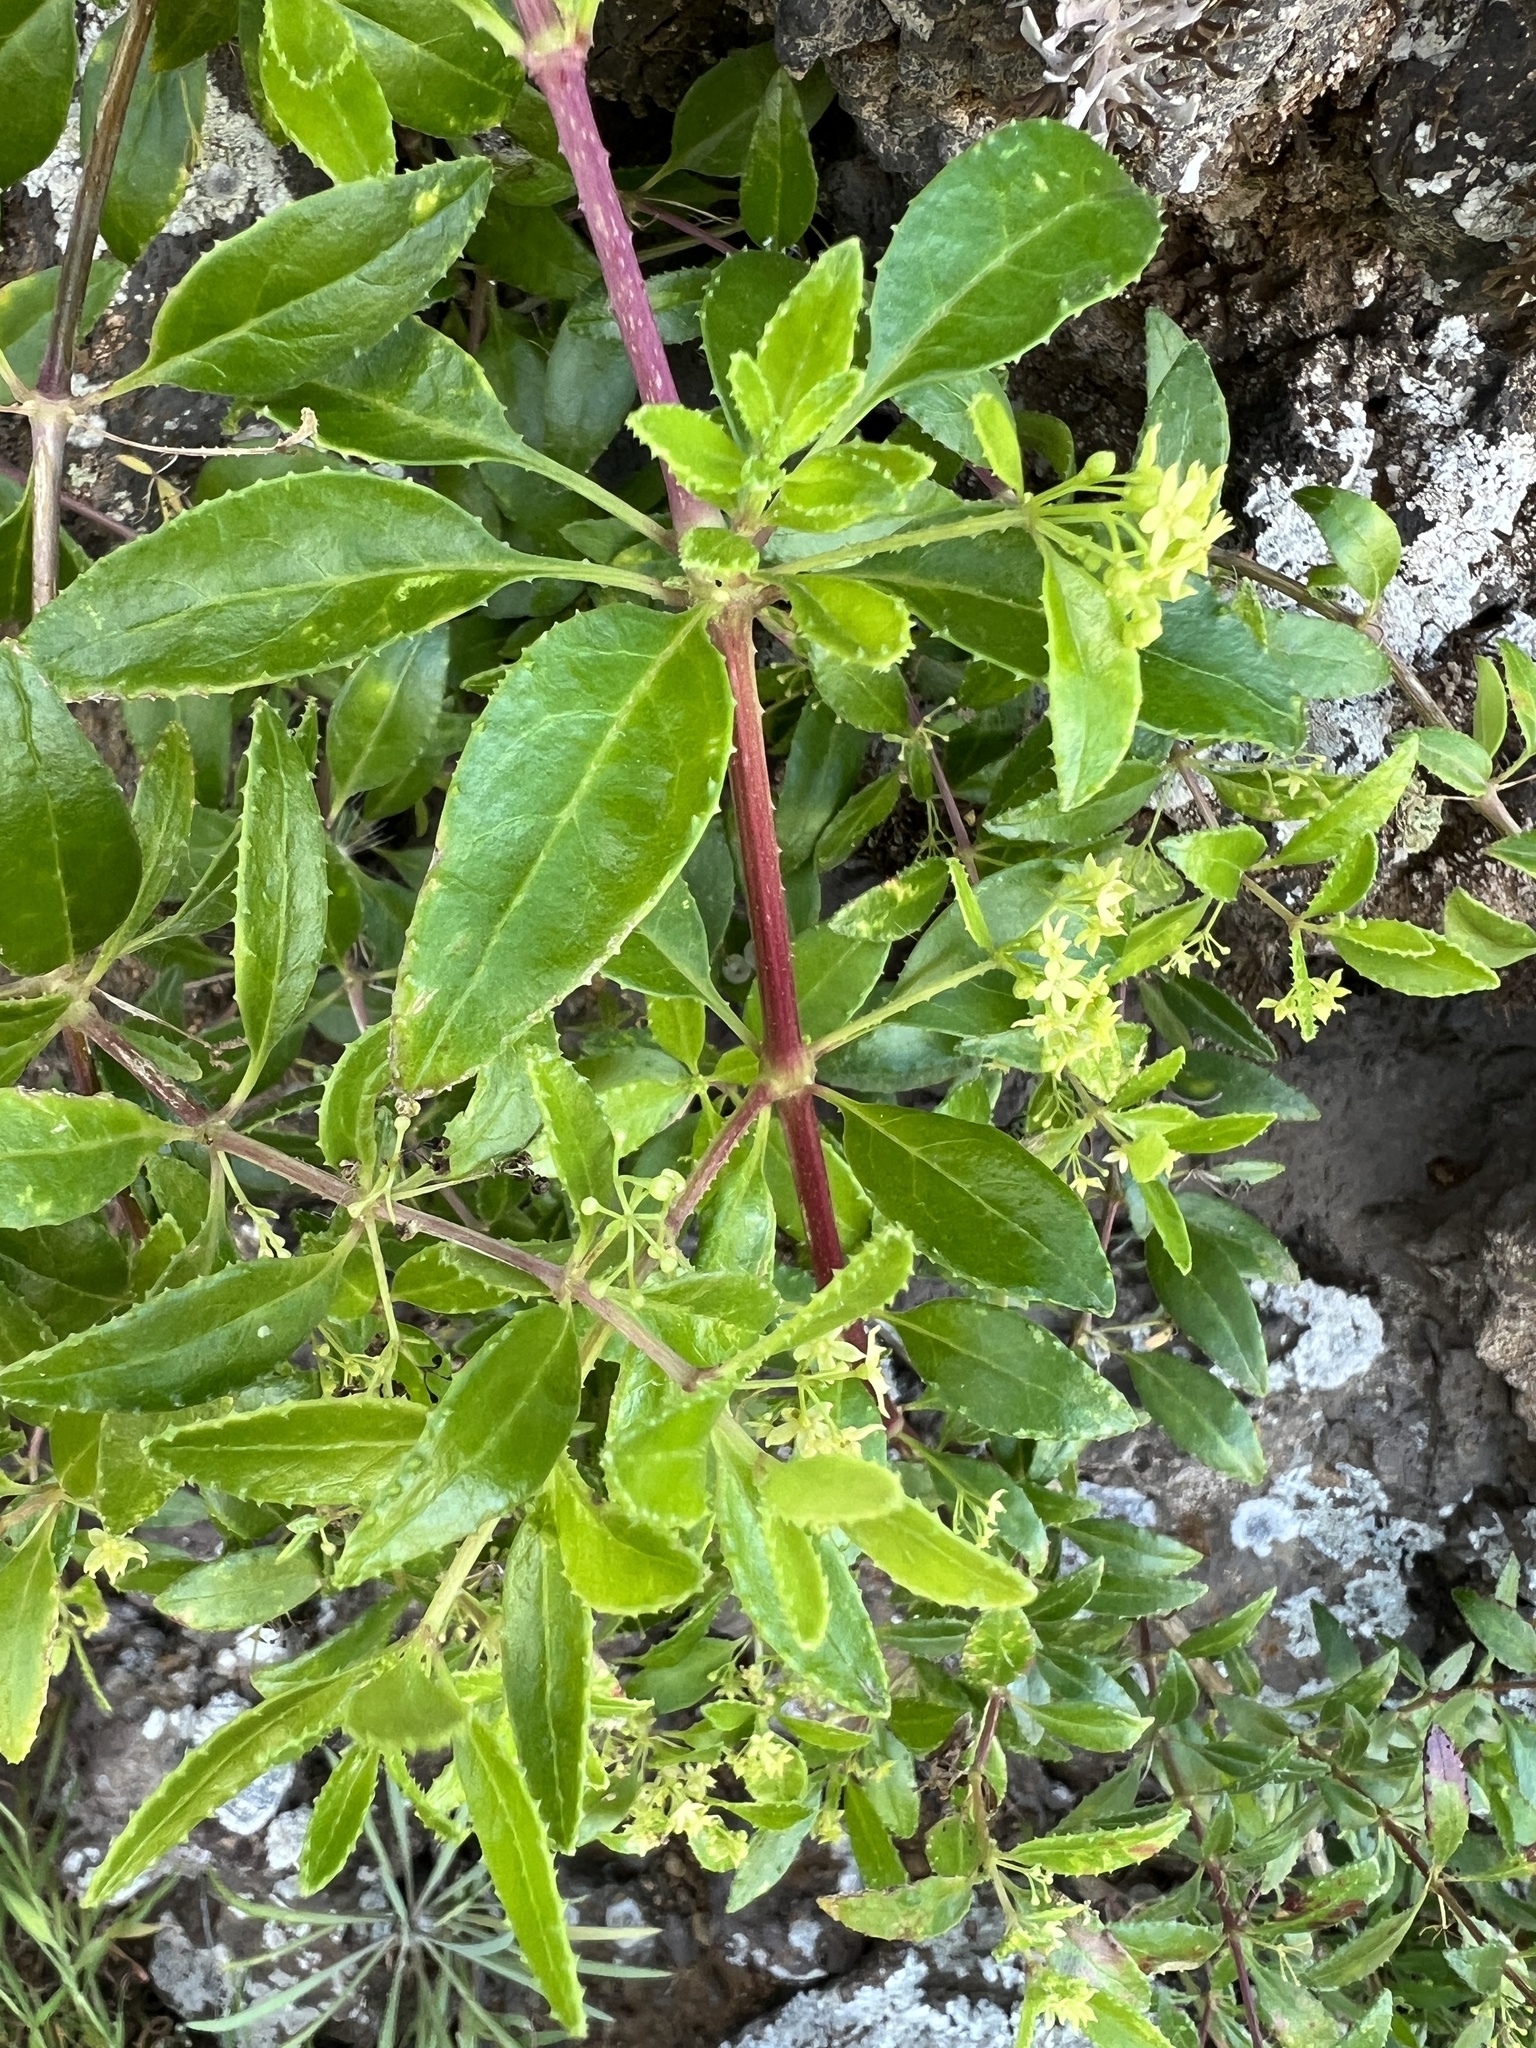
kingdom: Plantae
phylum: Tracheophyta
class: Magnoliopsida
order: Gentianales
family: Rubiaceae
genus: Rubia
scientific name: Rubia fruticosa
